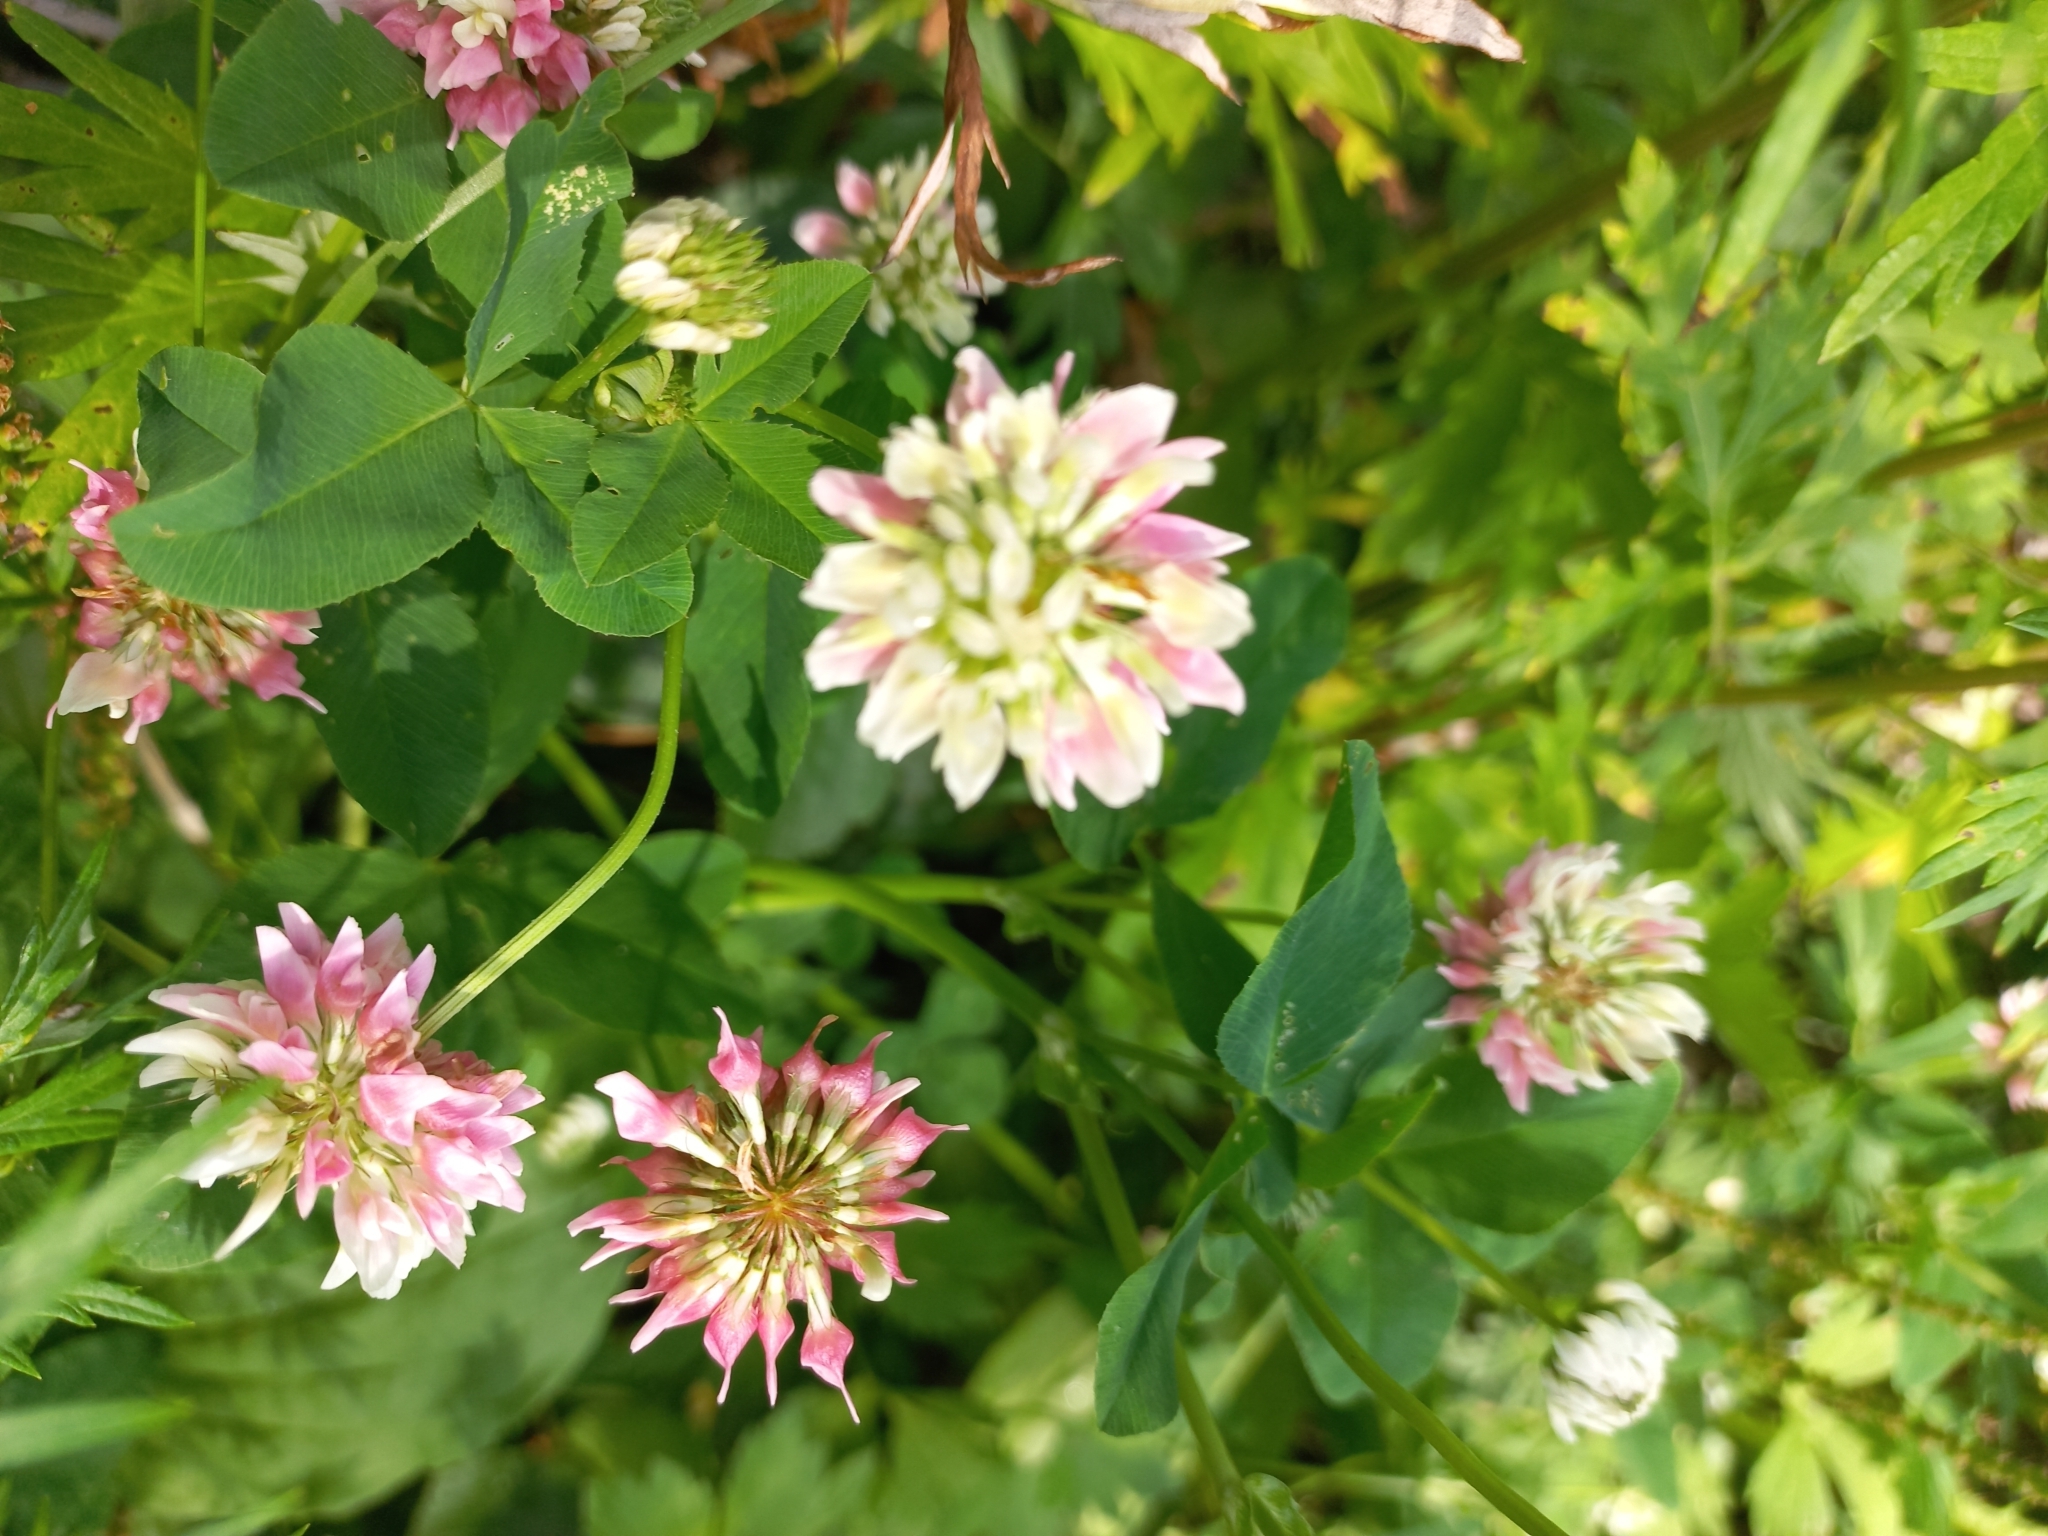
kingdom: Plantae
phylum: Tracheophyta
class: Magnoliopsida
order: Fabales
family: Fabaceae
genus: Trifolium
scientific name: Trifolium hybridum
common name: Alsike clover
